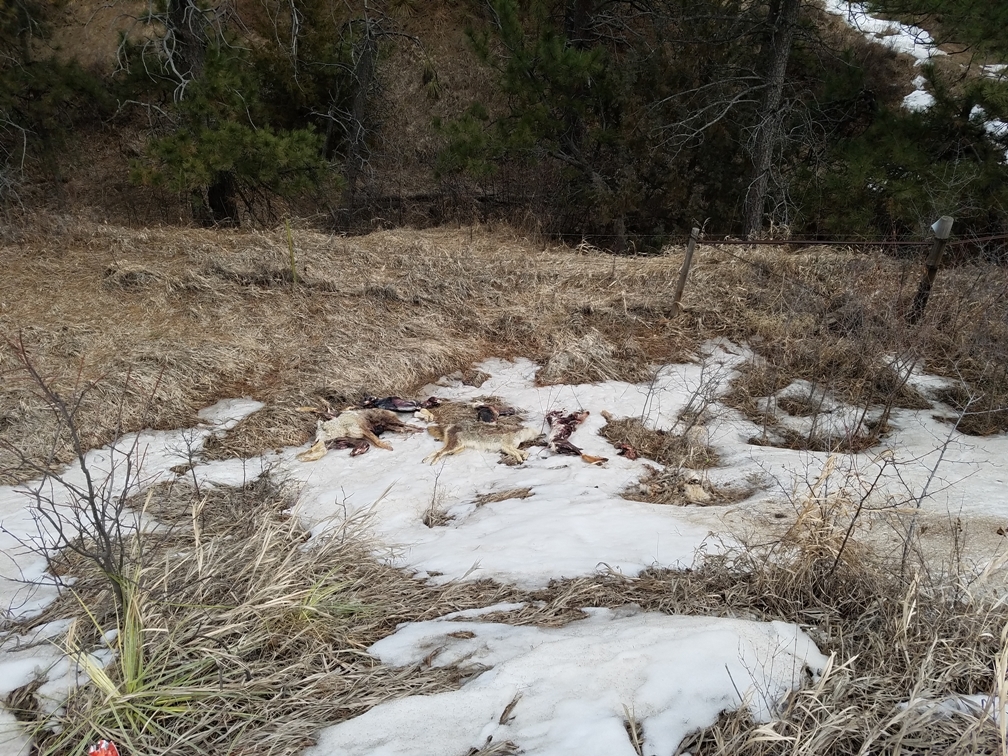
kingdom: Animalia
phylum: Chordata
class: Mammalia
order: Carnivora
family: Canidae
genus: Canis
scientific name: Canis latrans
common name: Coyote
